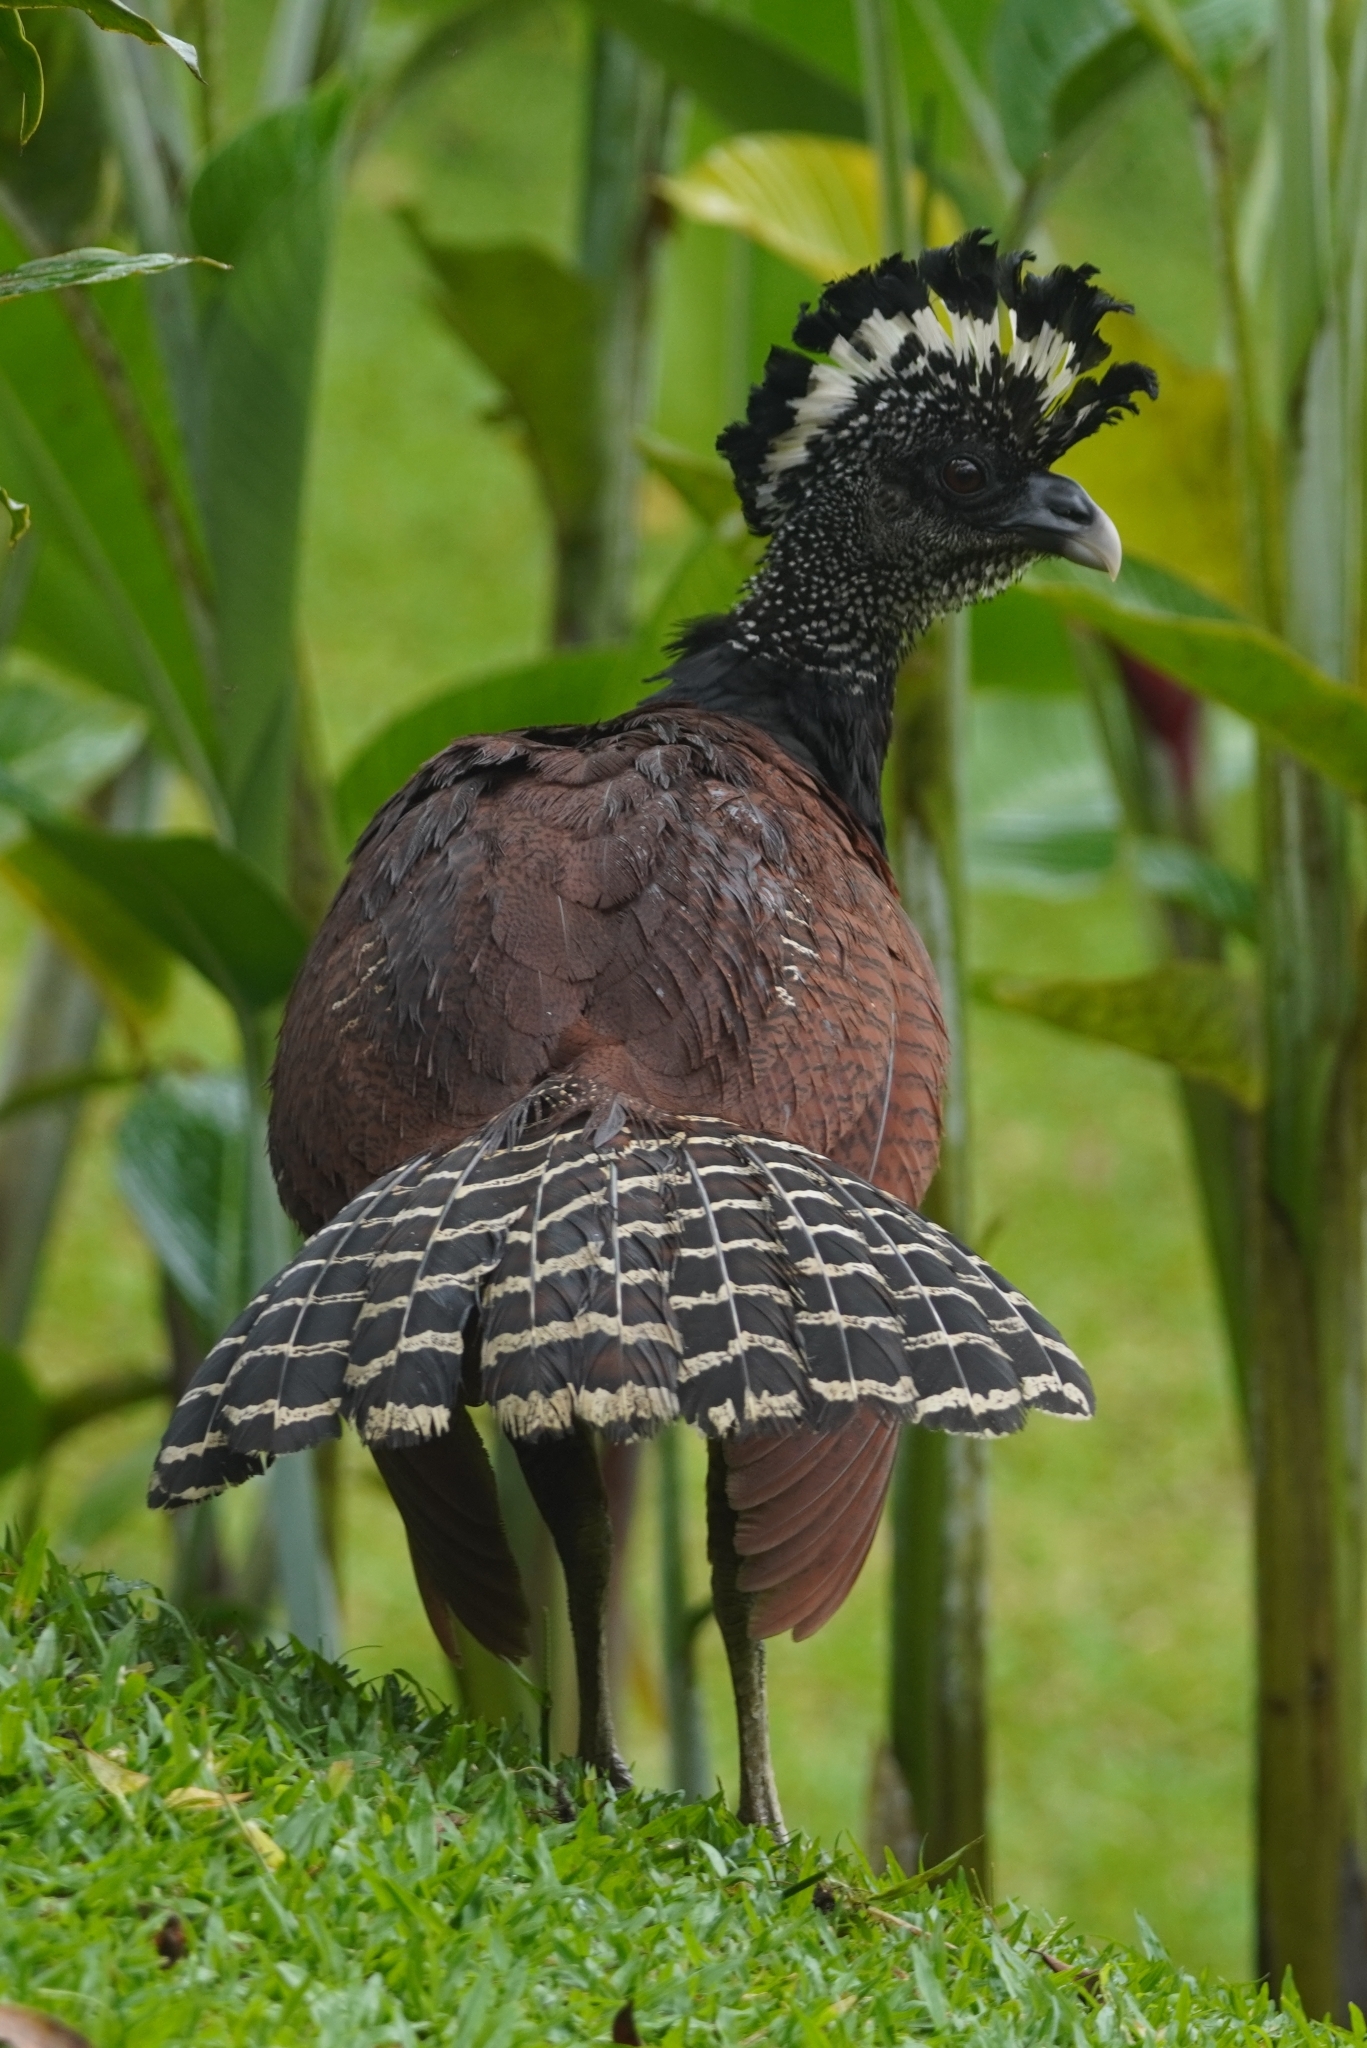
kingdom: Animalia
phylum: Chordata
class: Aves
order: Galliformes
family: Cracidae
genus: Crax
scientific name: Crax rubra
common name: Great curassow
